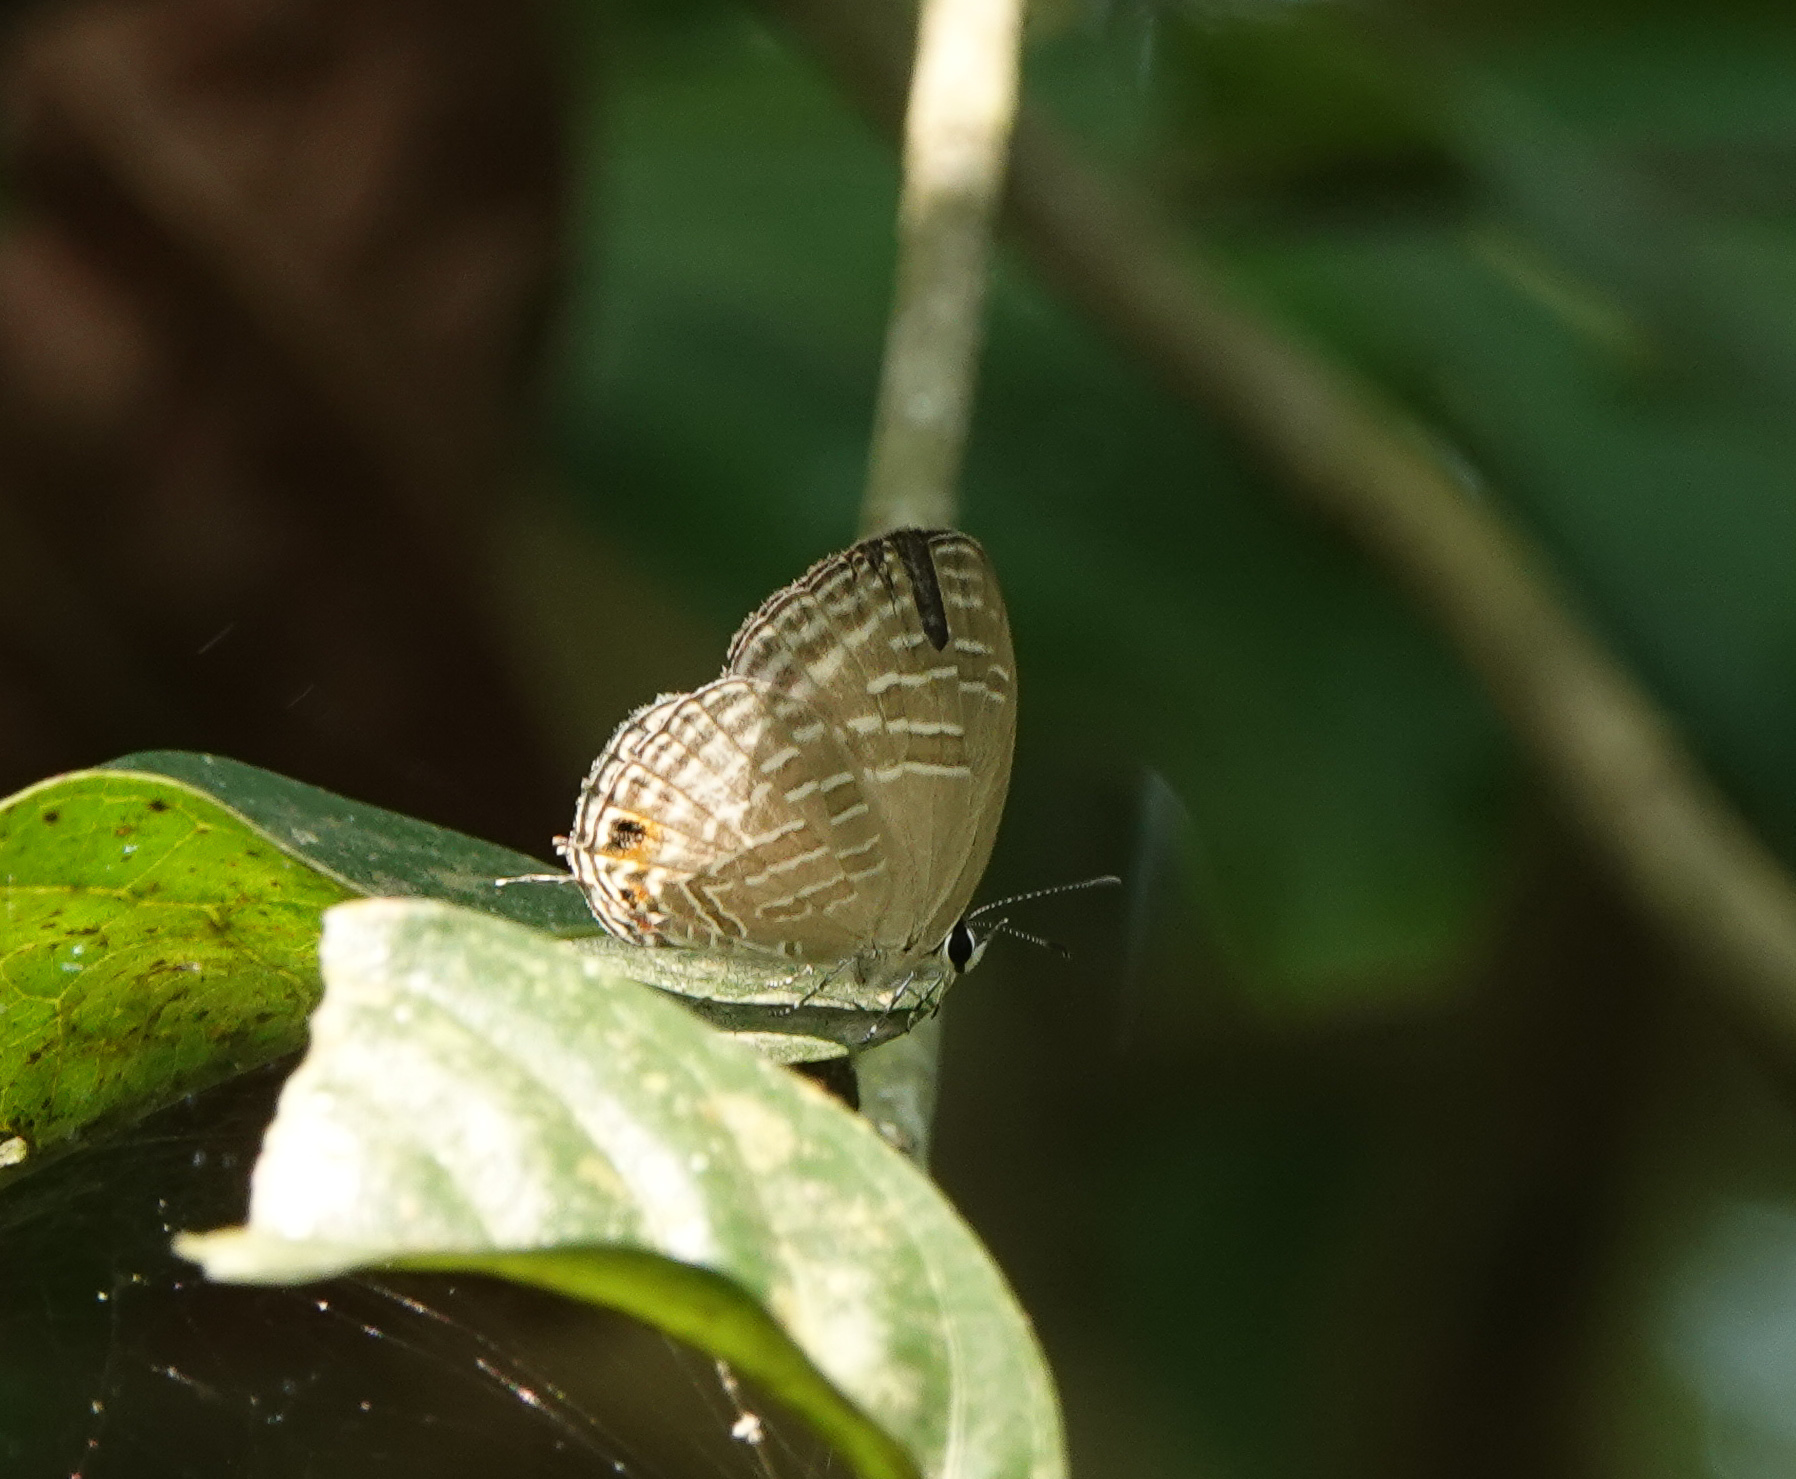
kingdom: Animalia
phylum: Arthropoda
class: Insecta
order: Lepidoptera
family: Lycaenidae
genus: Jamides
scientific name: Jamides alecto
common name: Metallic cerulean
